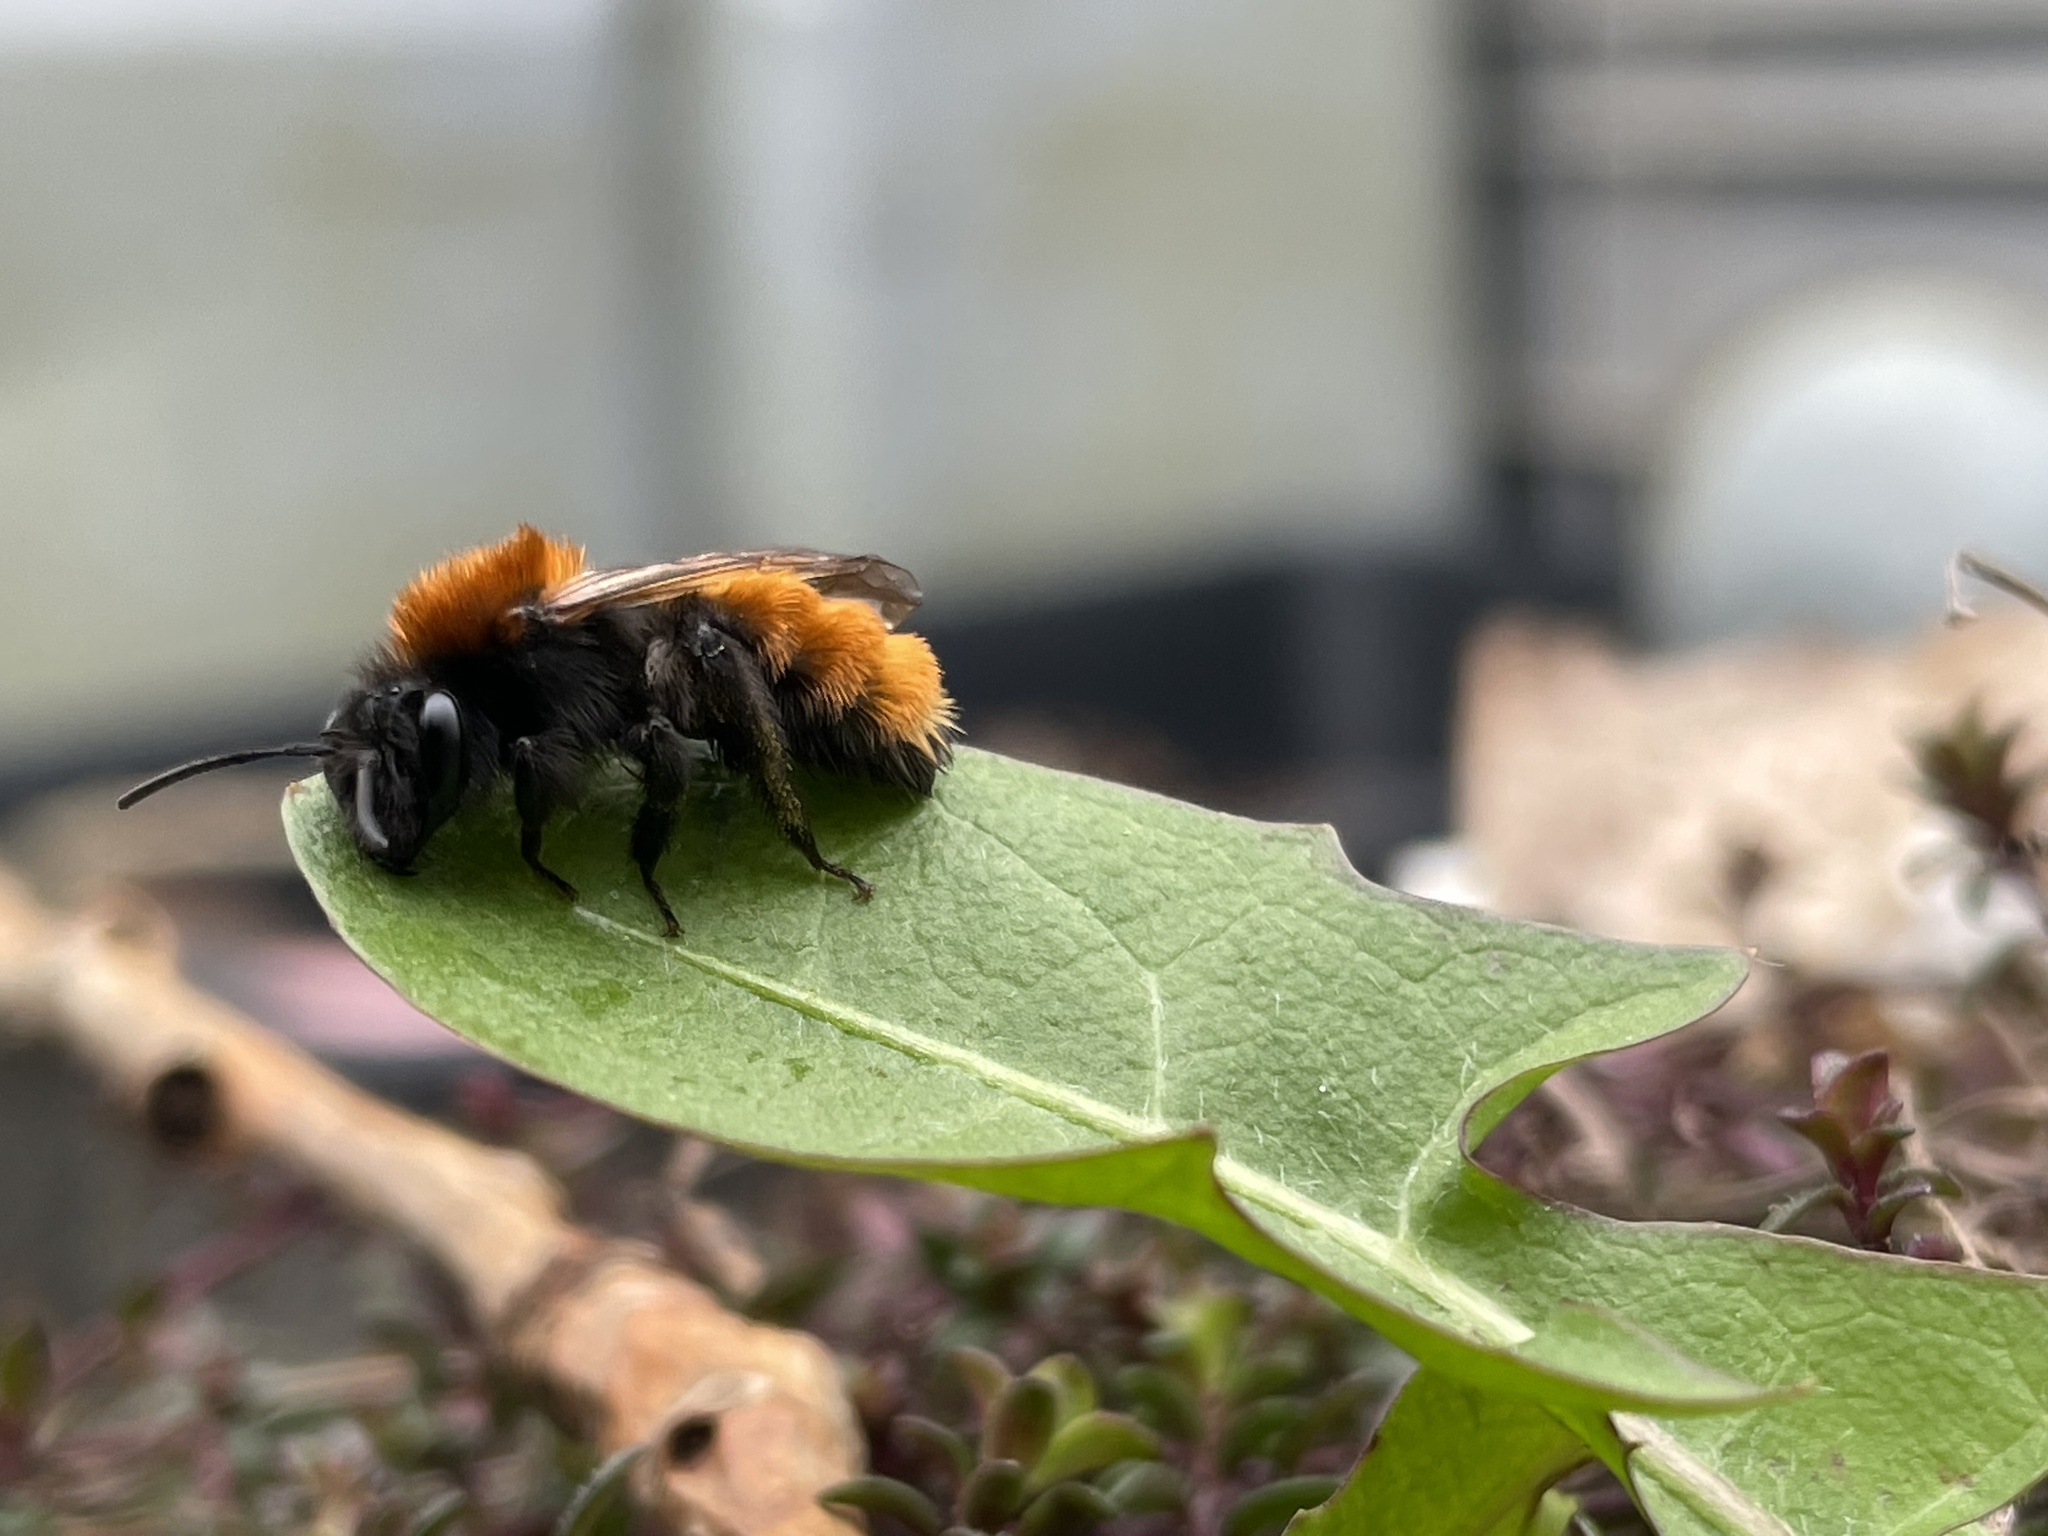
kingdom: Animalia
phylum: Arthropoda
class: Insecta
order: Hymenoptera
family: Andrenidae
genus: Andrena
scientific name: Andrena fulva
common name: Tawny mining bee
